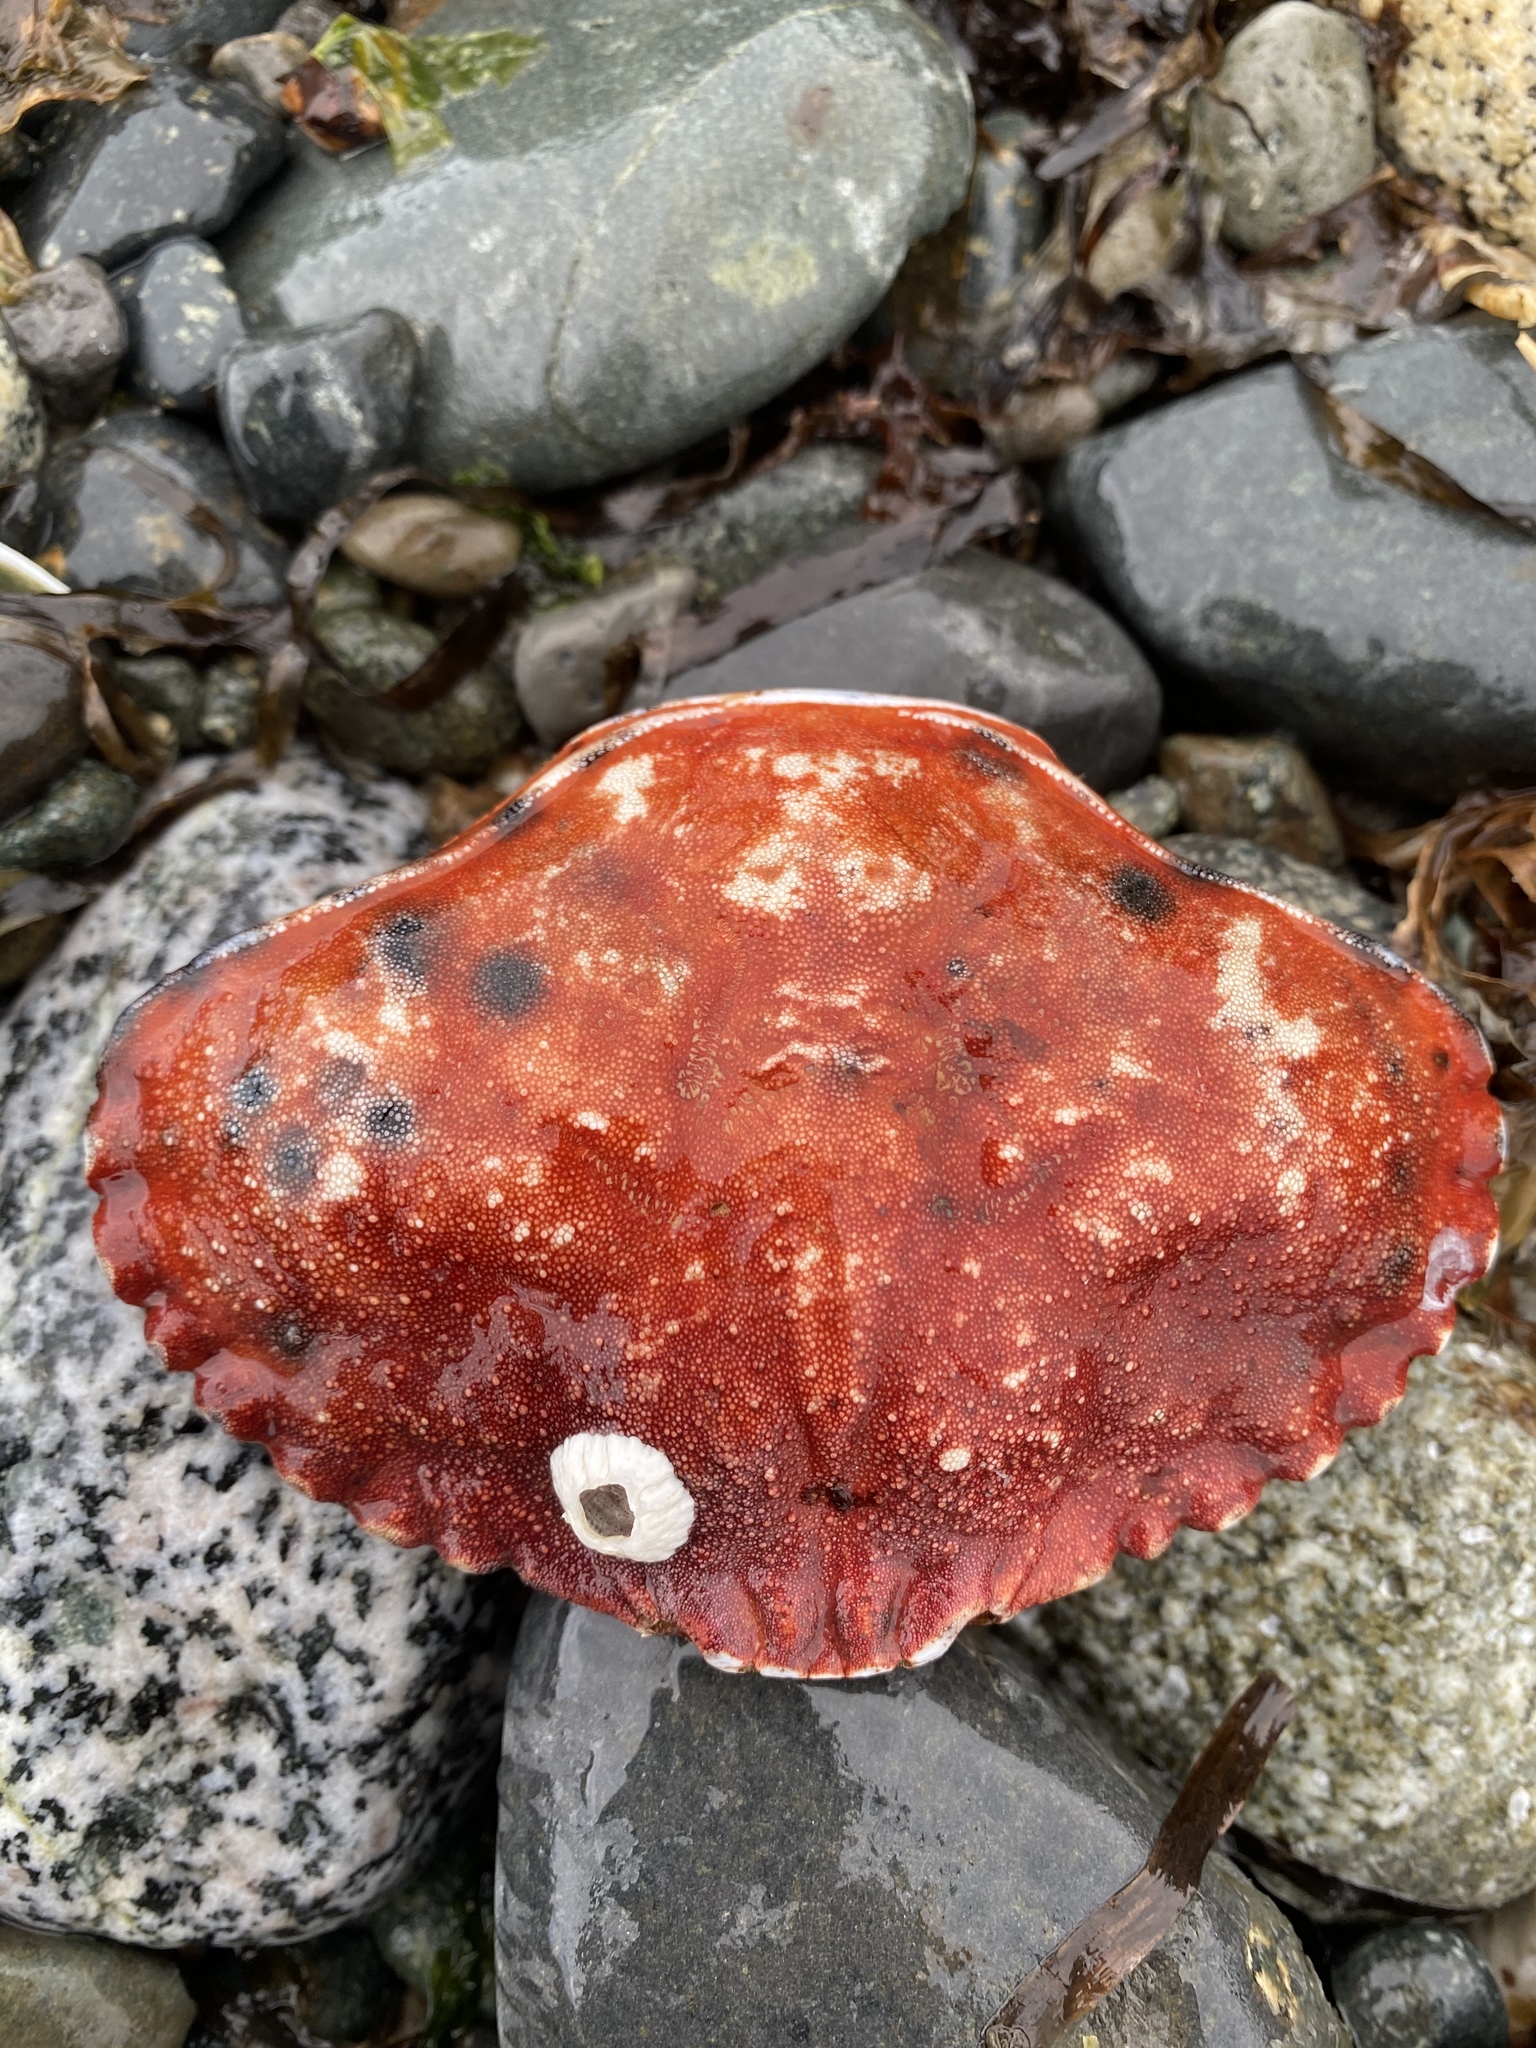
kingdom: Animalia
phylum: Arthropoda
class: Malacostraca
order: Decapoda
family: Cancridae
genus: Cancer
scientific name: Cancer productus
